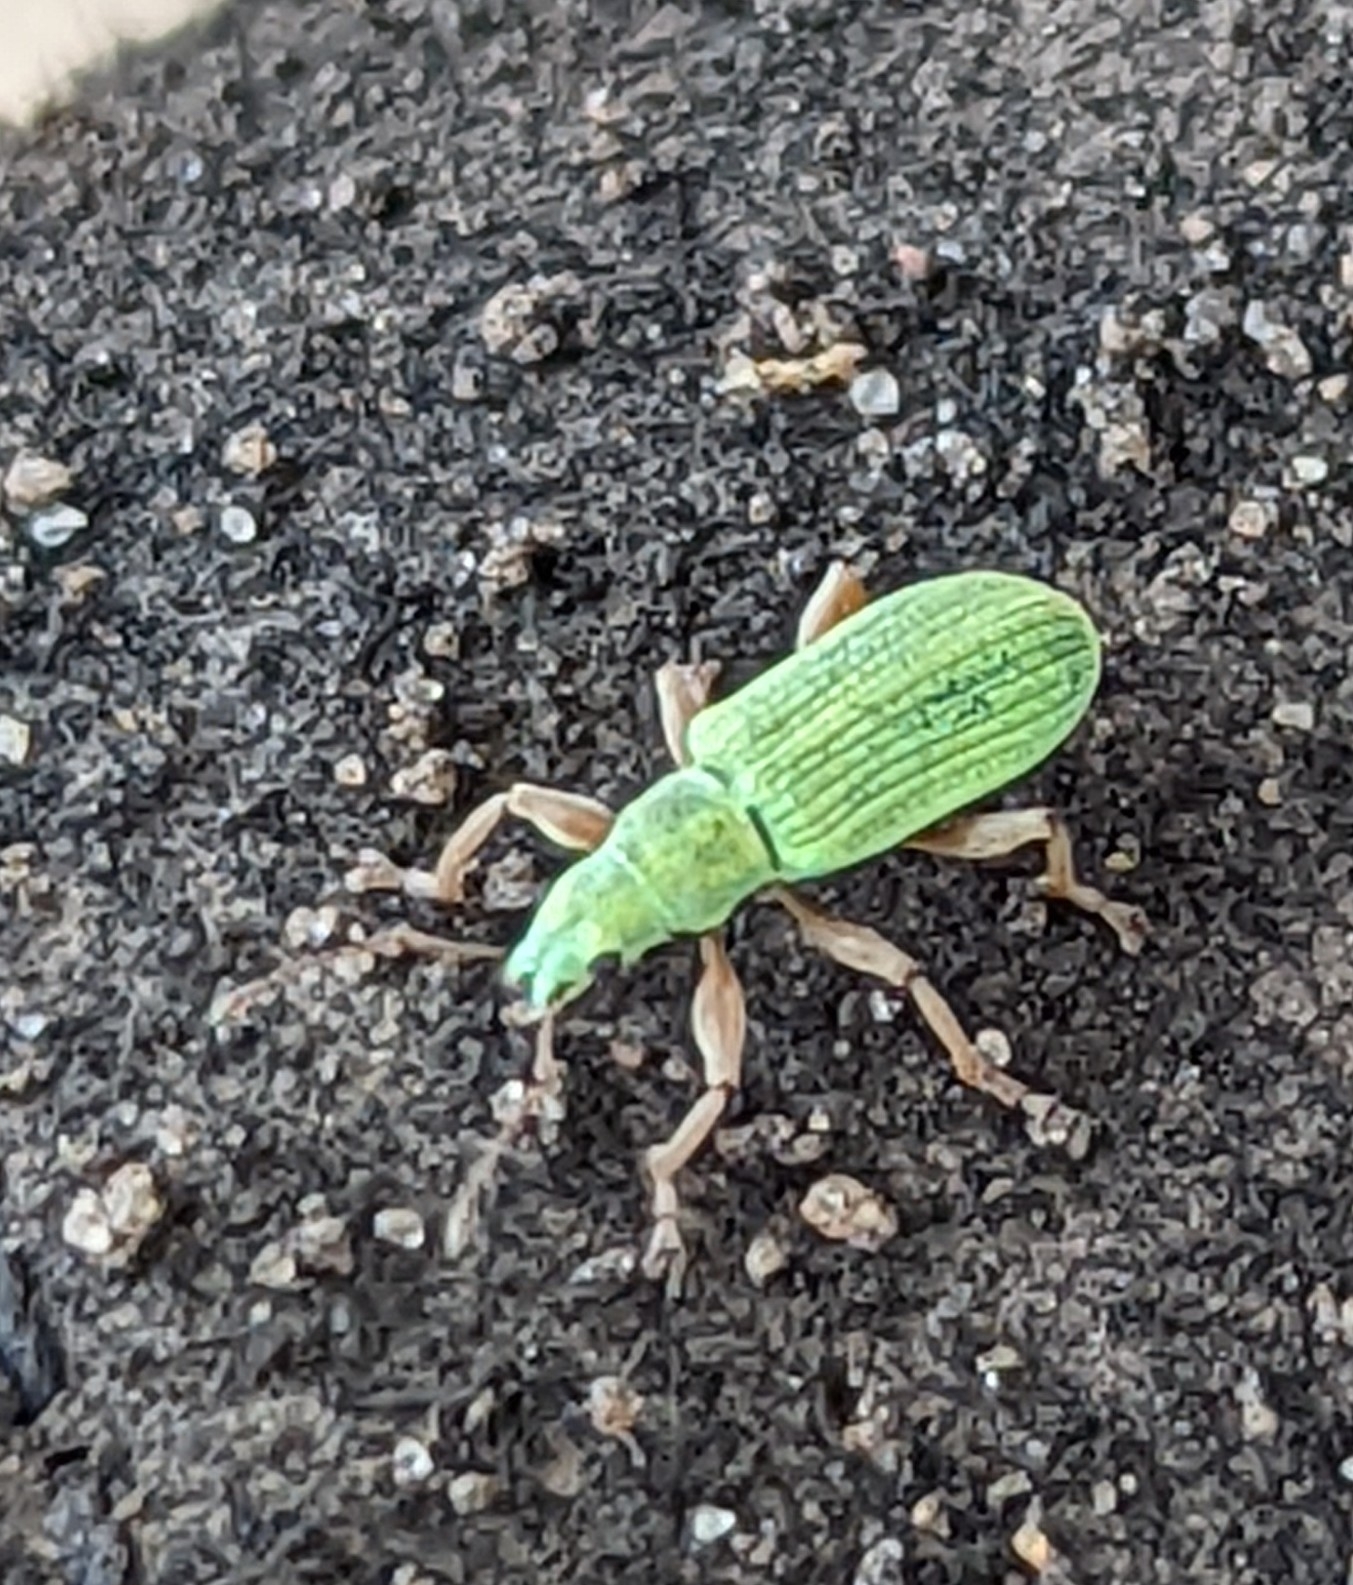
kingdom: Animalia
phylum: Arthropoda
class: Insecta
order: Coleoptera
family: Curculionidae
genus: Polydrusus
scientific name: Polydrusus impressifrons
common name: Weevil
